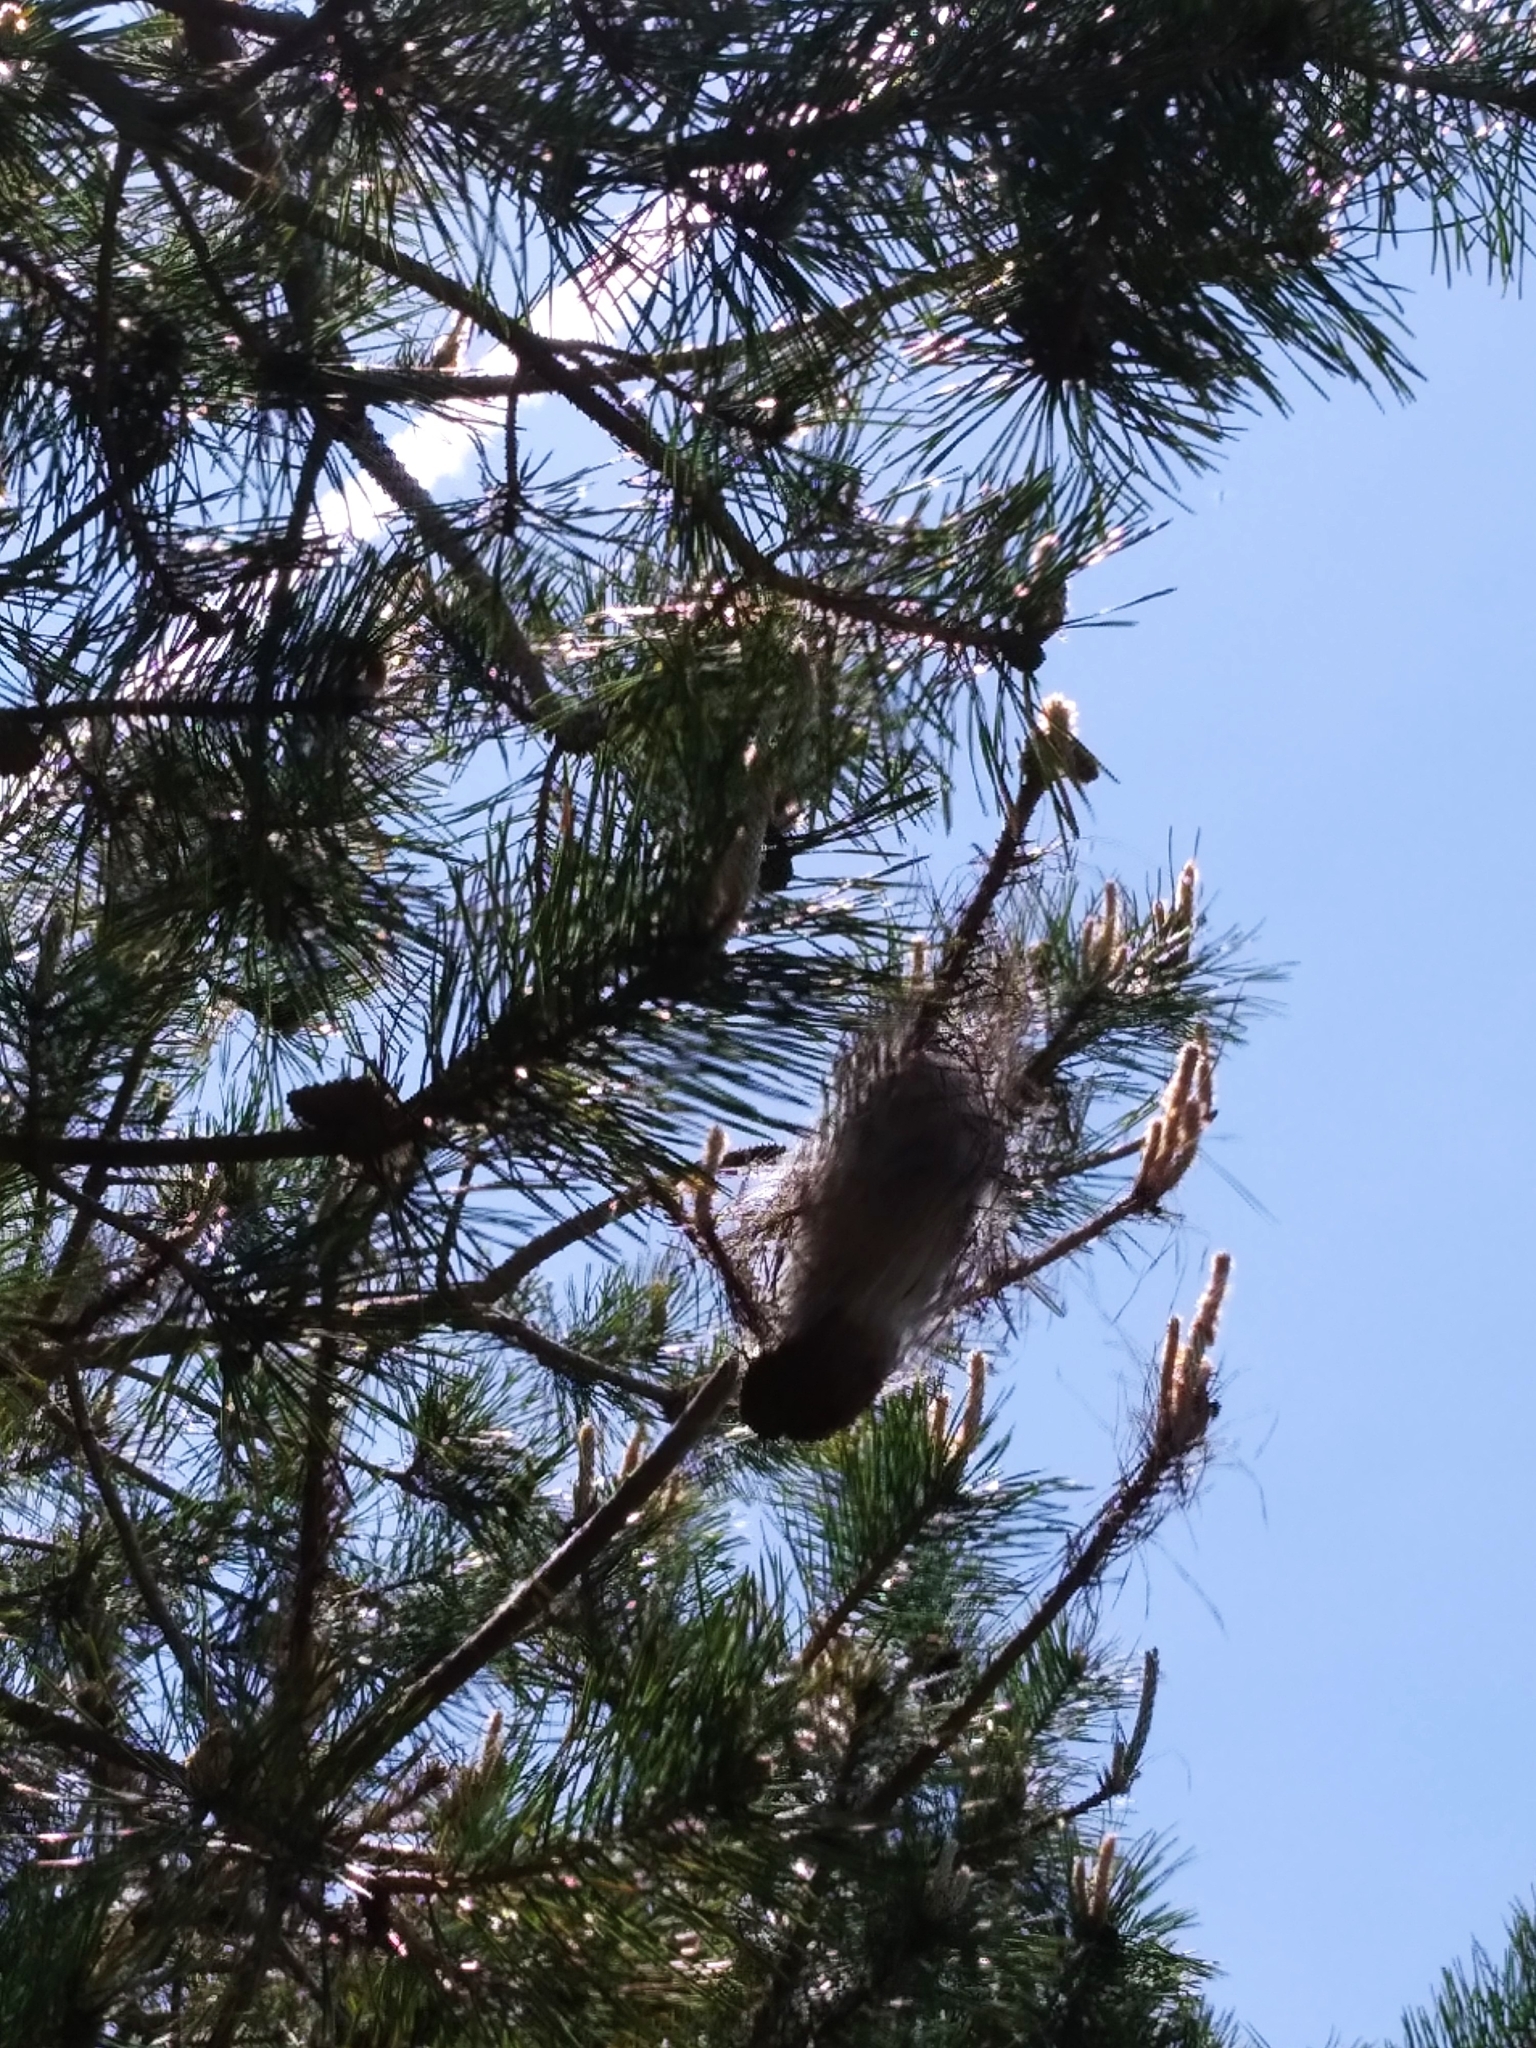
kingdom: Animalia
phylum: Arthropoda
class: Insecta
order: Lepidoptera
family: Notodontidae
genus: Thaumetopoea
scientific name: Thaumetopoea pityocampa
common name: Pine processionary
